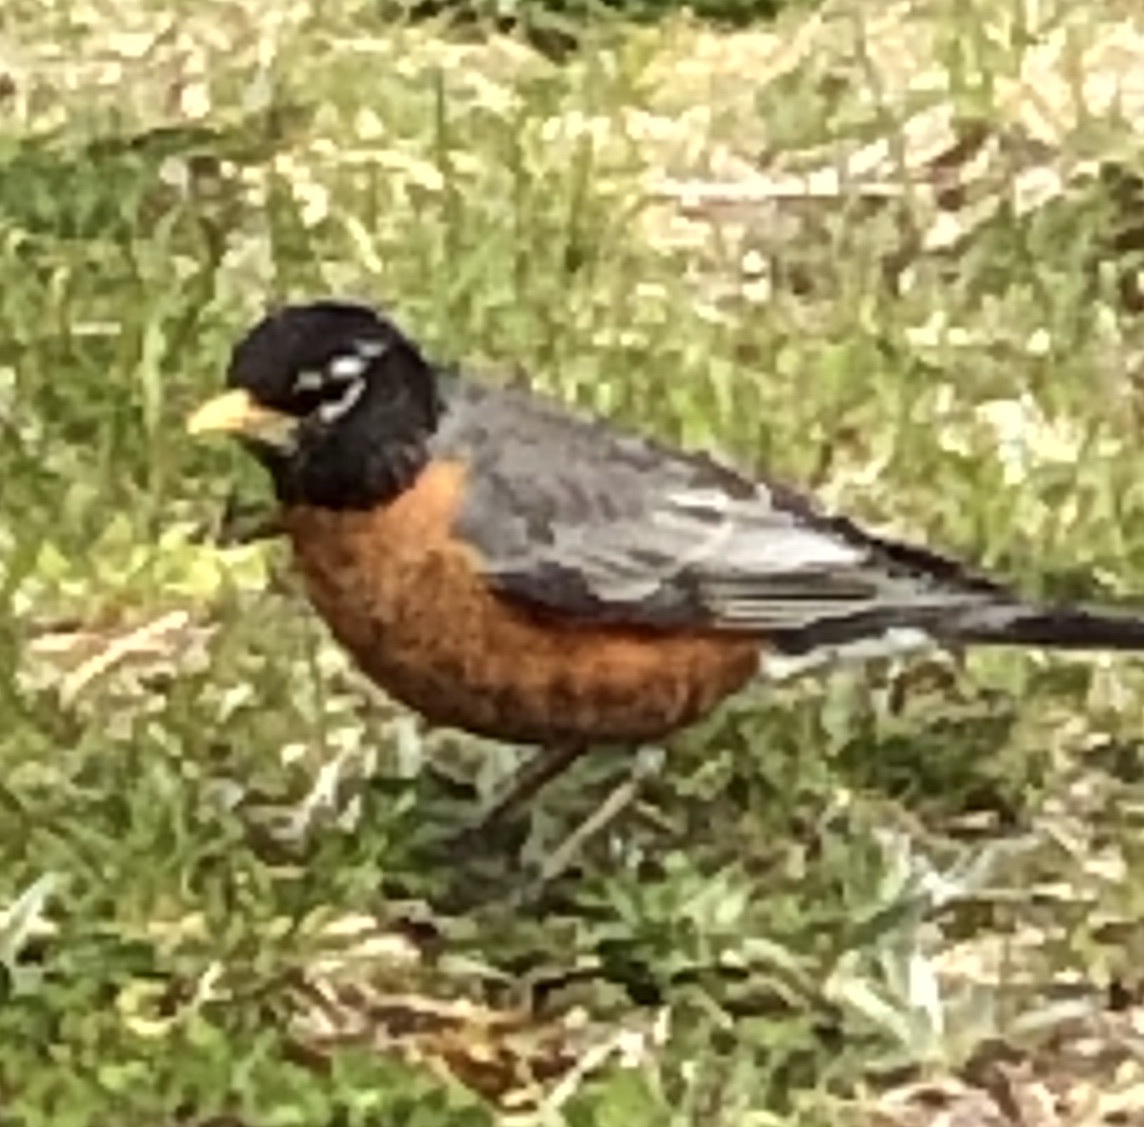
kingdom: Animalia
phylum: Chordata
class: Aves
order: Passeriformes
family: Turdidae
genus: Turdus
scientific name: Turdus migratorius
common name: American robin
